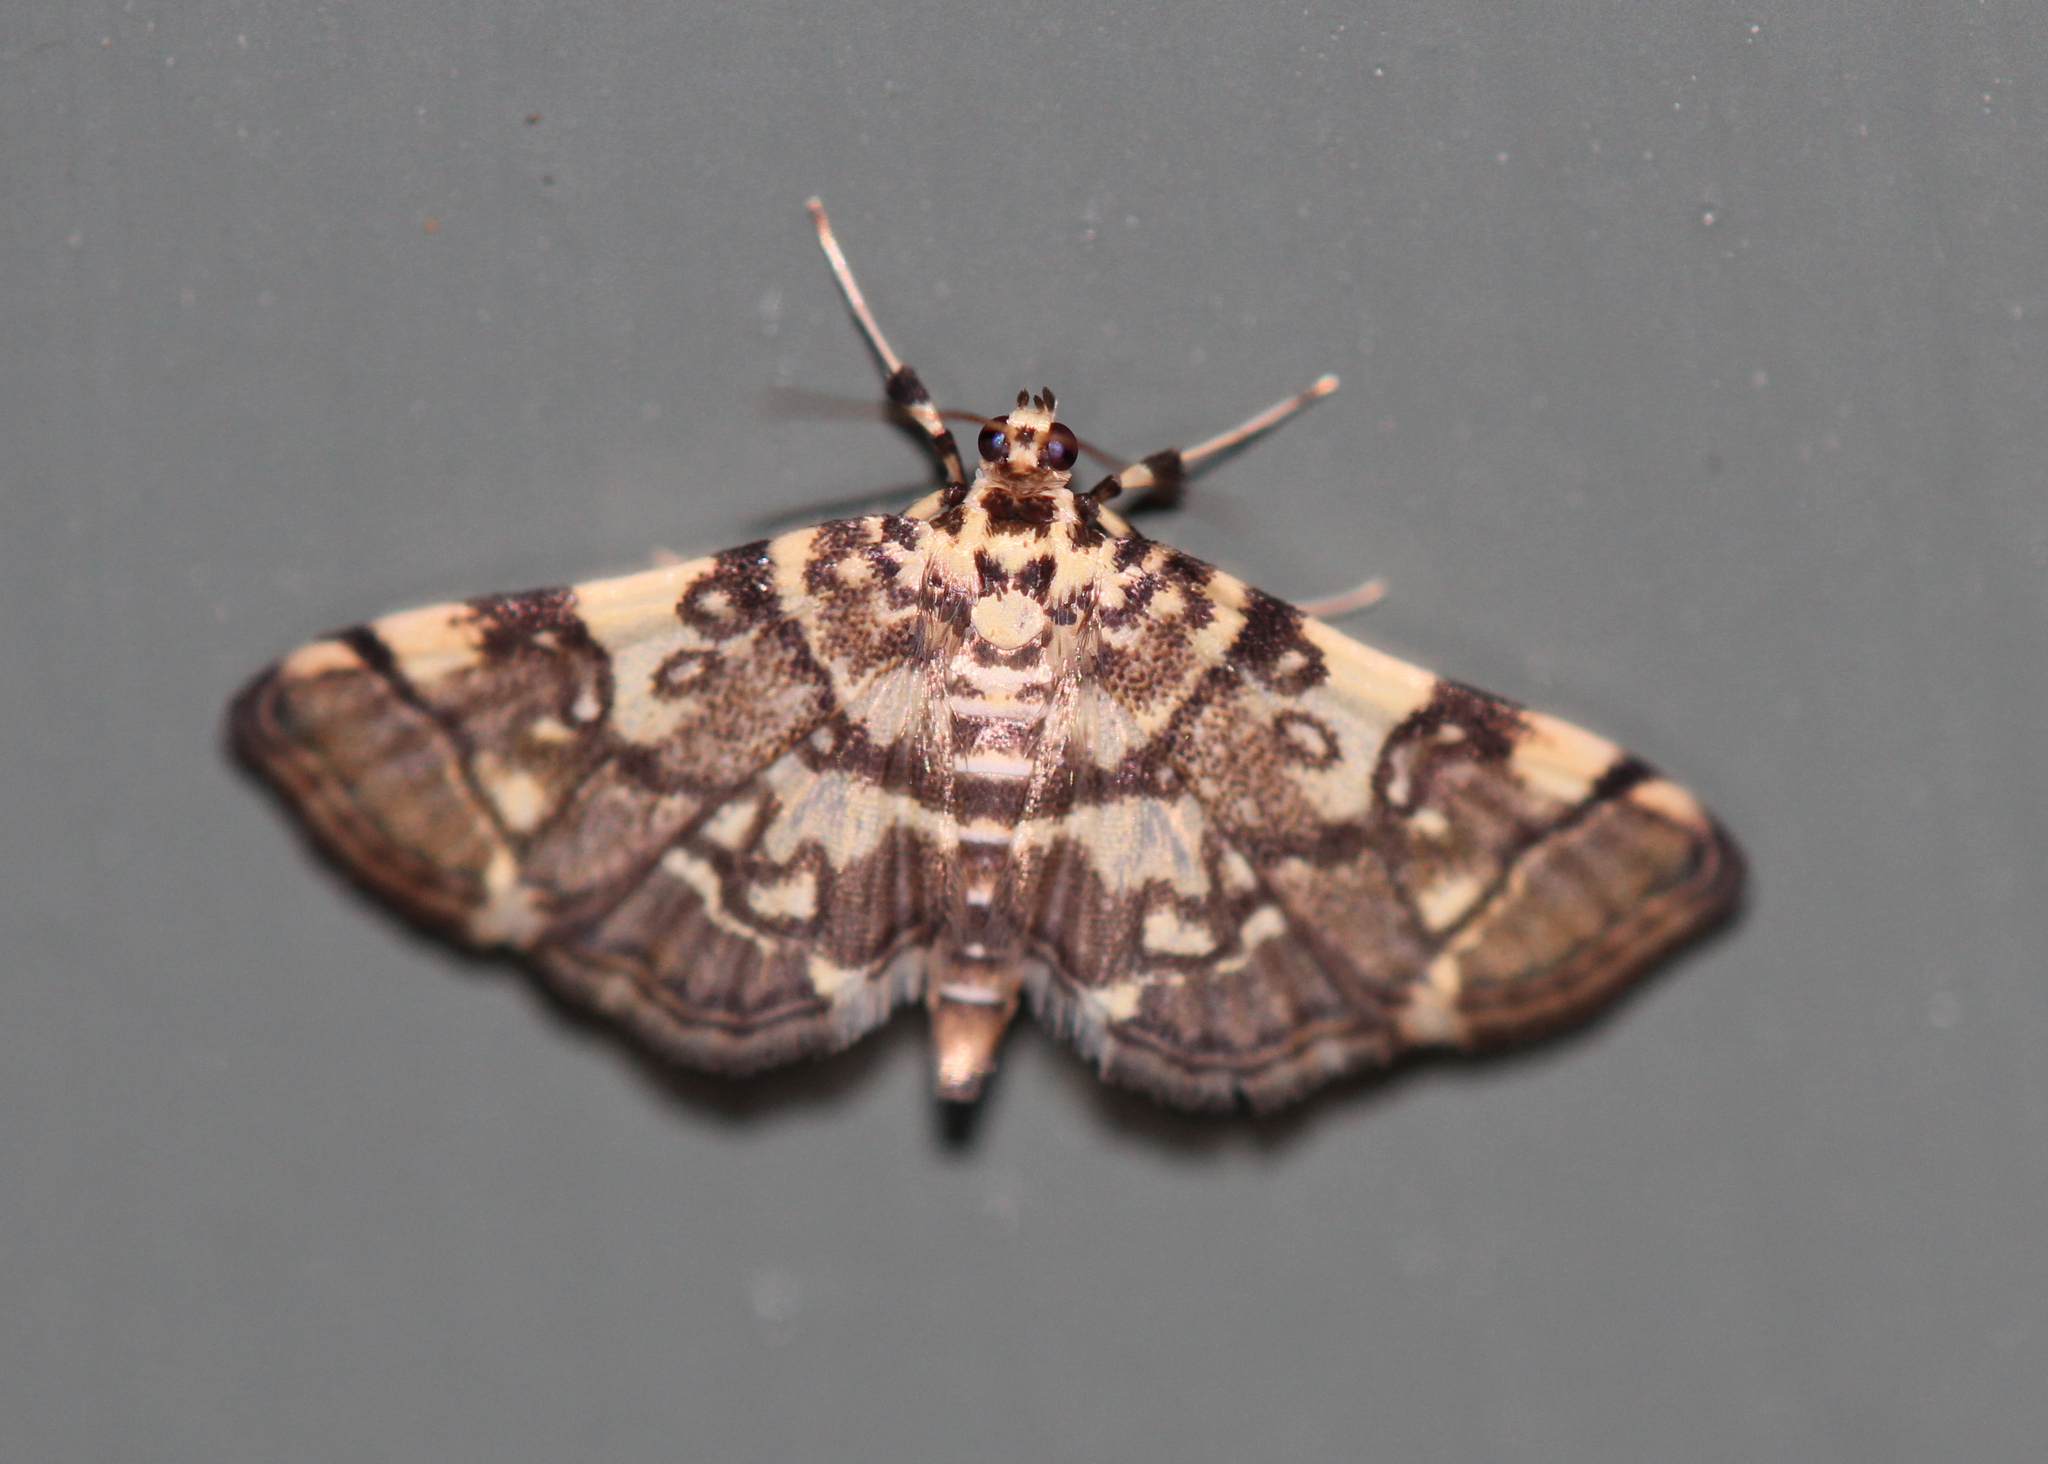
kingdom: Animalia
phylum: Arthropoda
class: Insecta
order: Lepidoptera
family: Crambidae
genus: Apogeshna
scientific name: Apogeshna stenialis
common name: Checkered apogeshna moth
